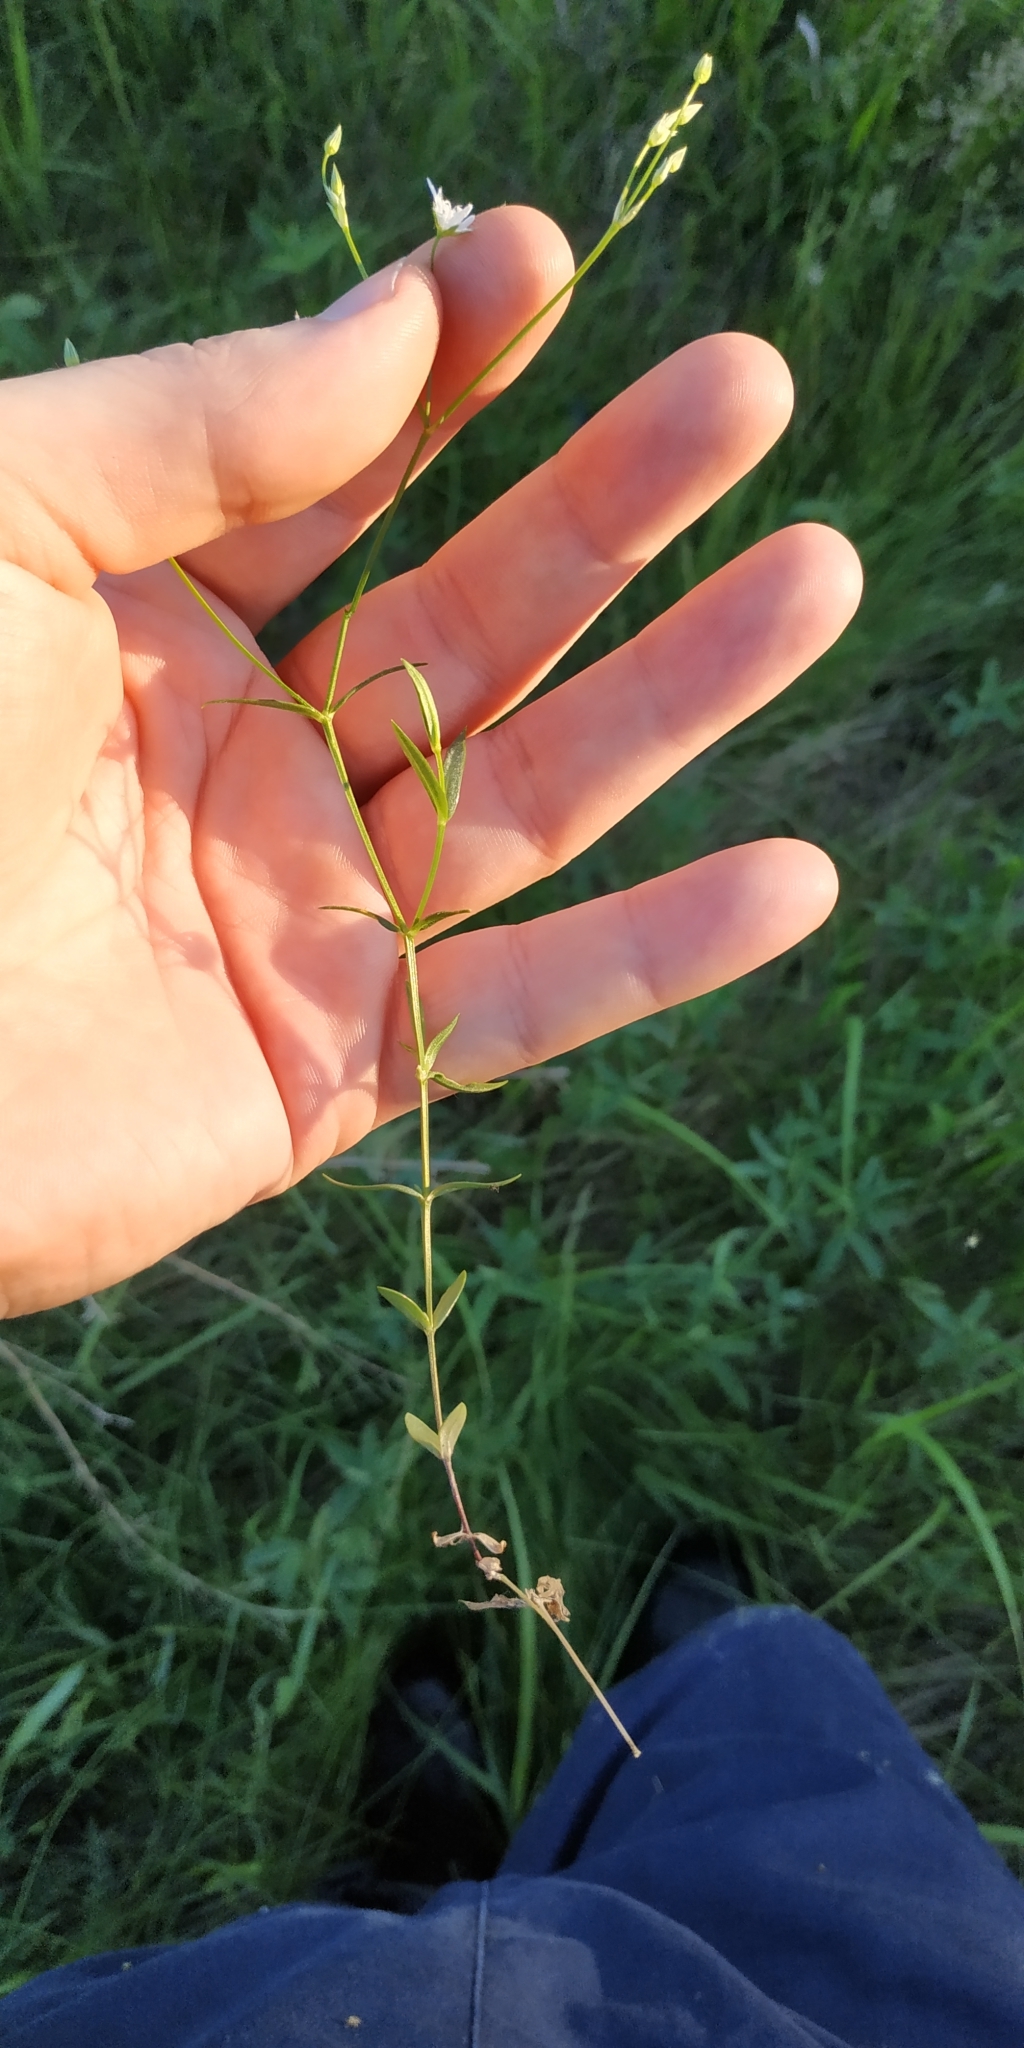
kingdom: Plantae
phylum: Tracheophyta
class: Magnoliopsida
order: Caryophyllales
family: Caryophyllaceae
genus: Stellaria
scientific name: Stellaria graminea
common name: Grass-like starwort
